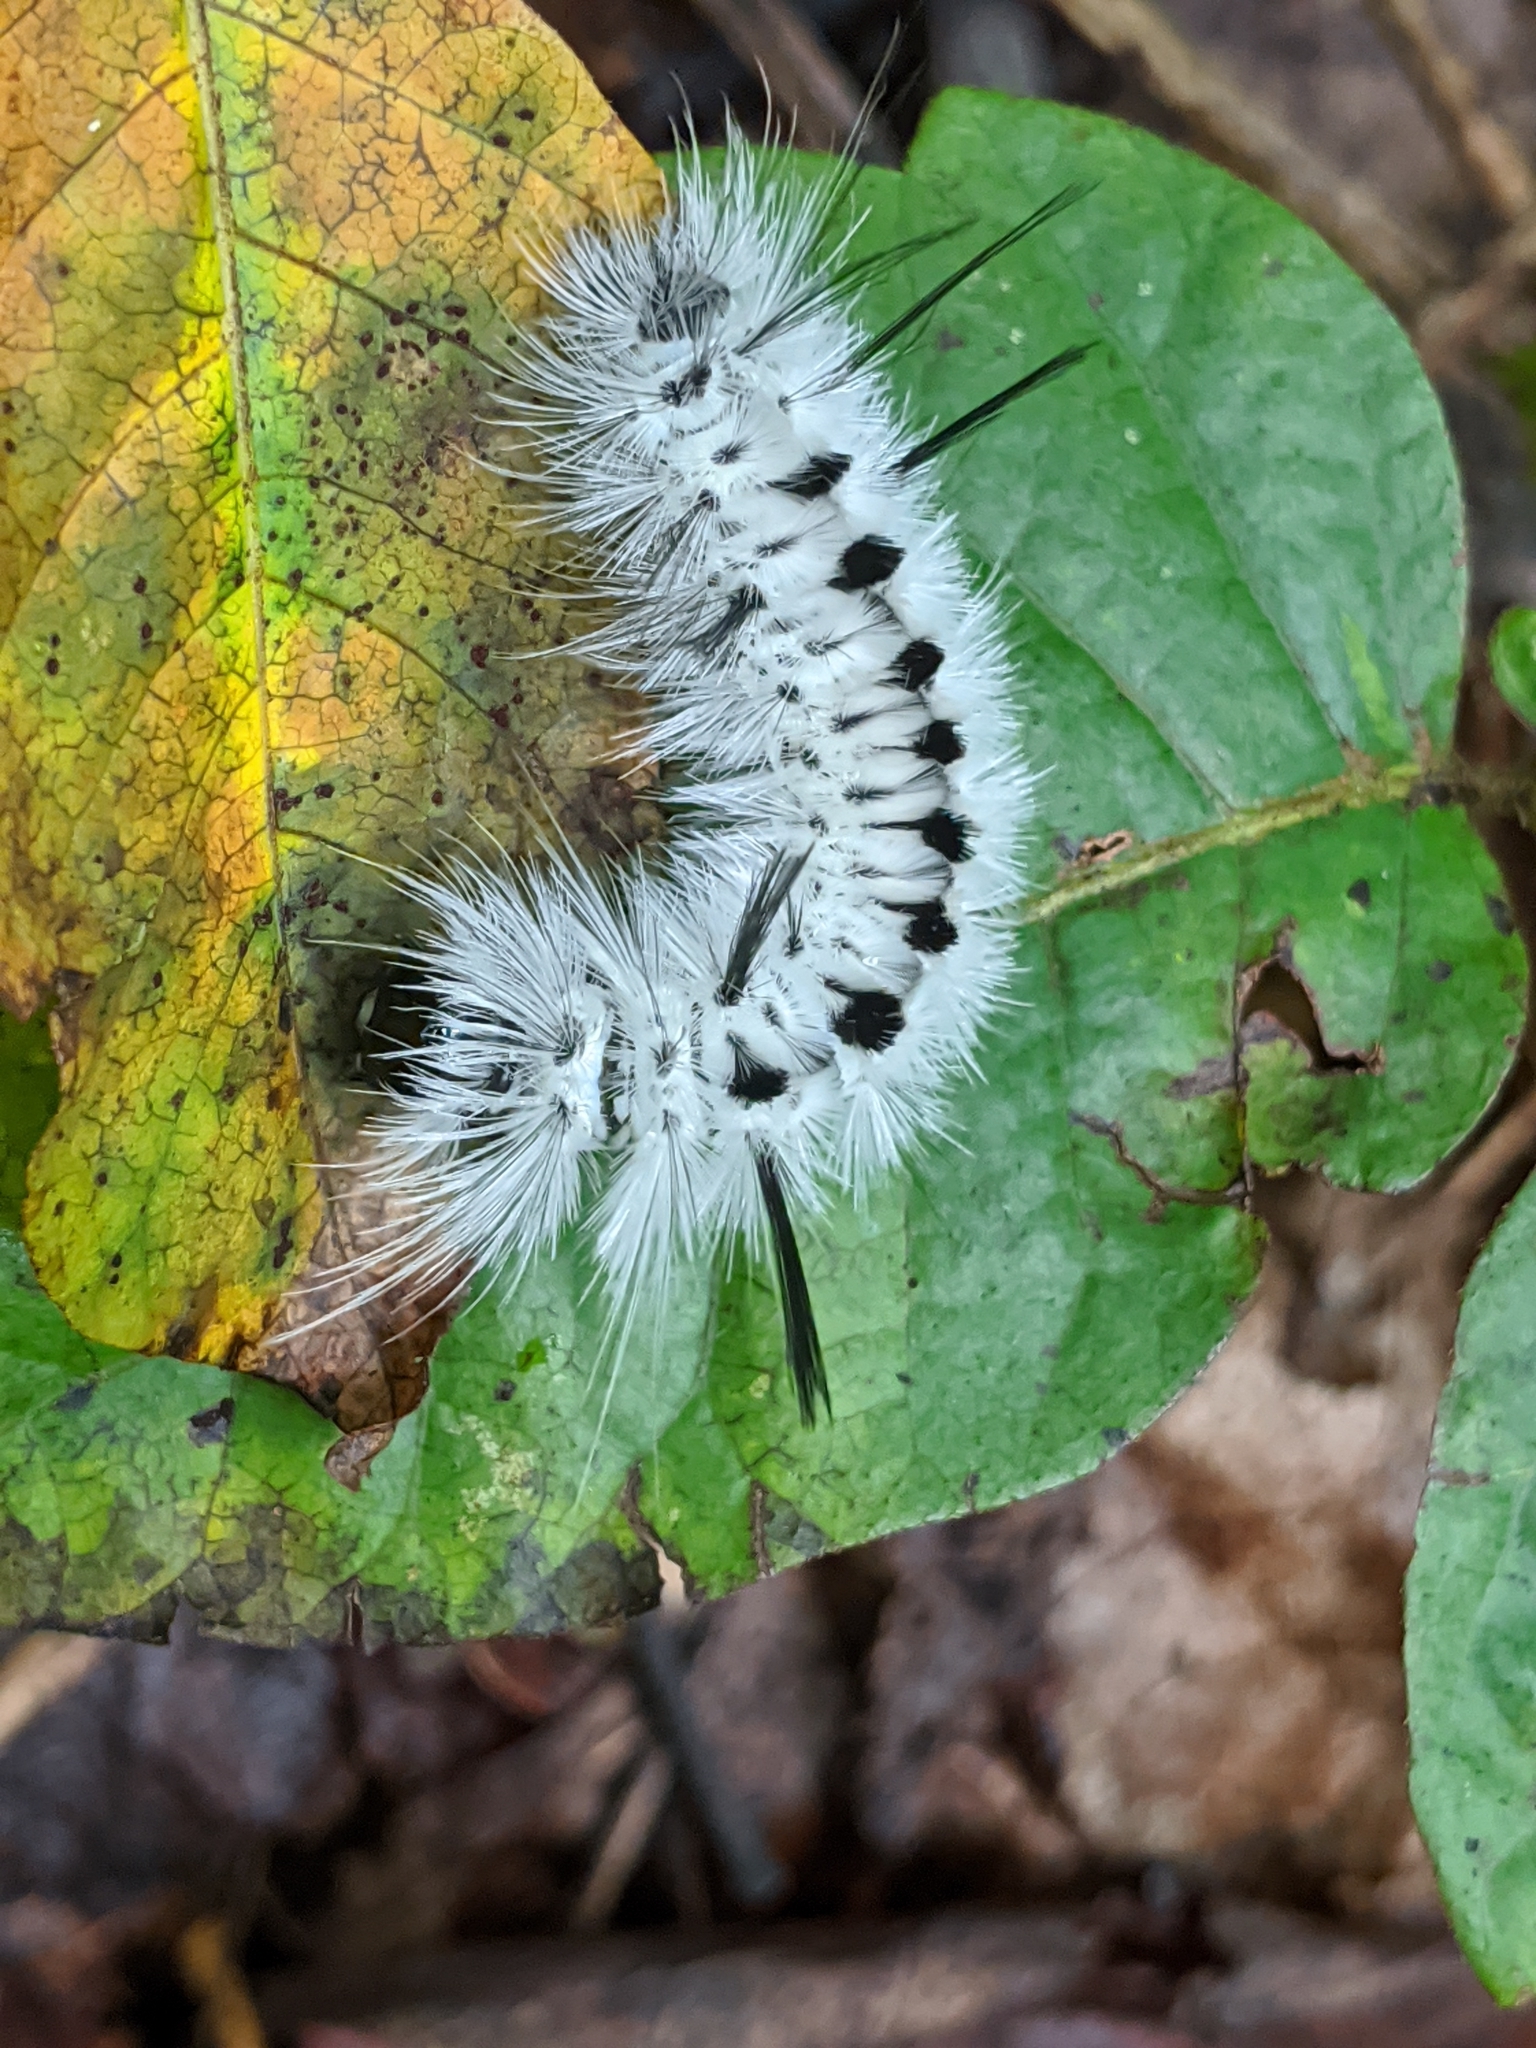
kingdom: Animalia
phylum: Arthropoda
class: Insecta
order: Lepidoptera
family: Erebidae
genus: Lophocampa
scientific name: Lophocampa caryae
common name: Hickory tussock moth
